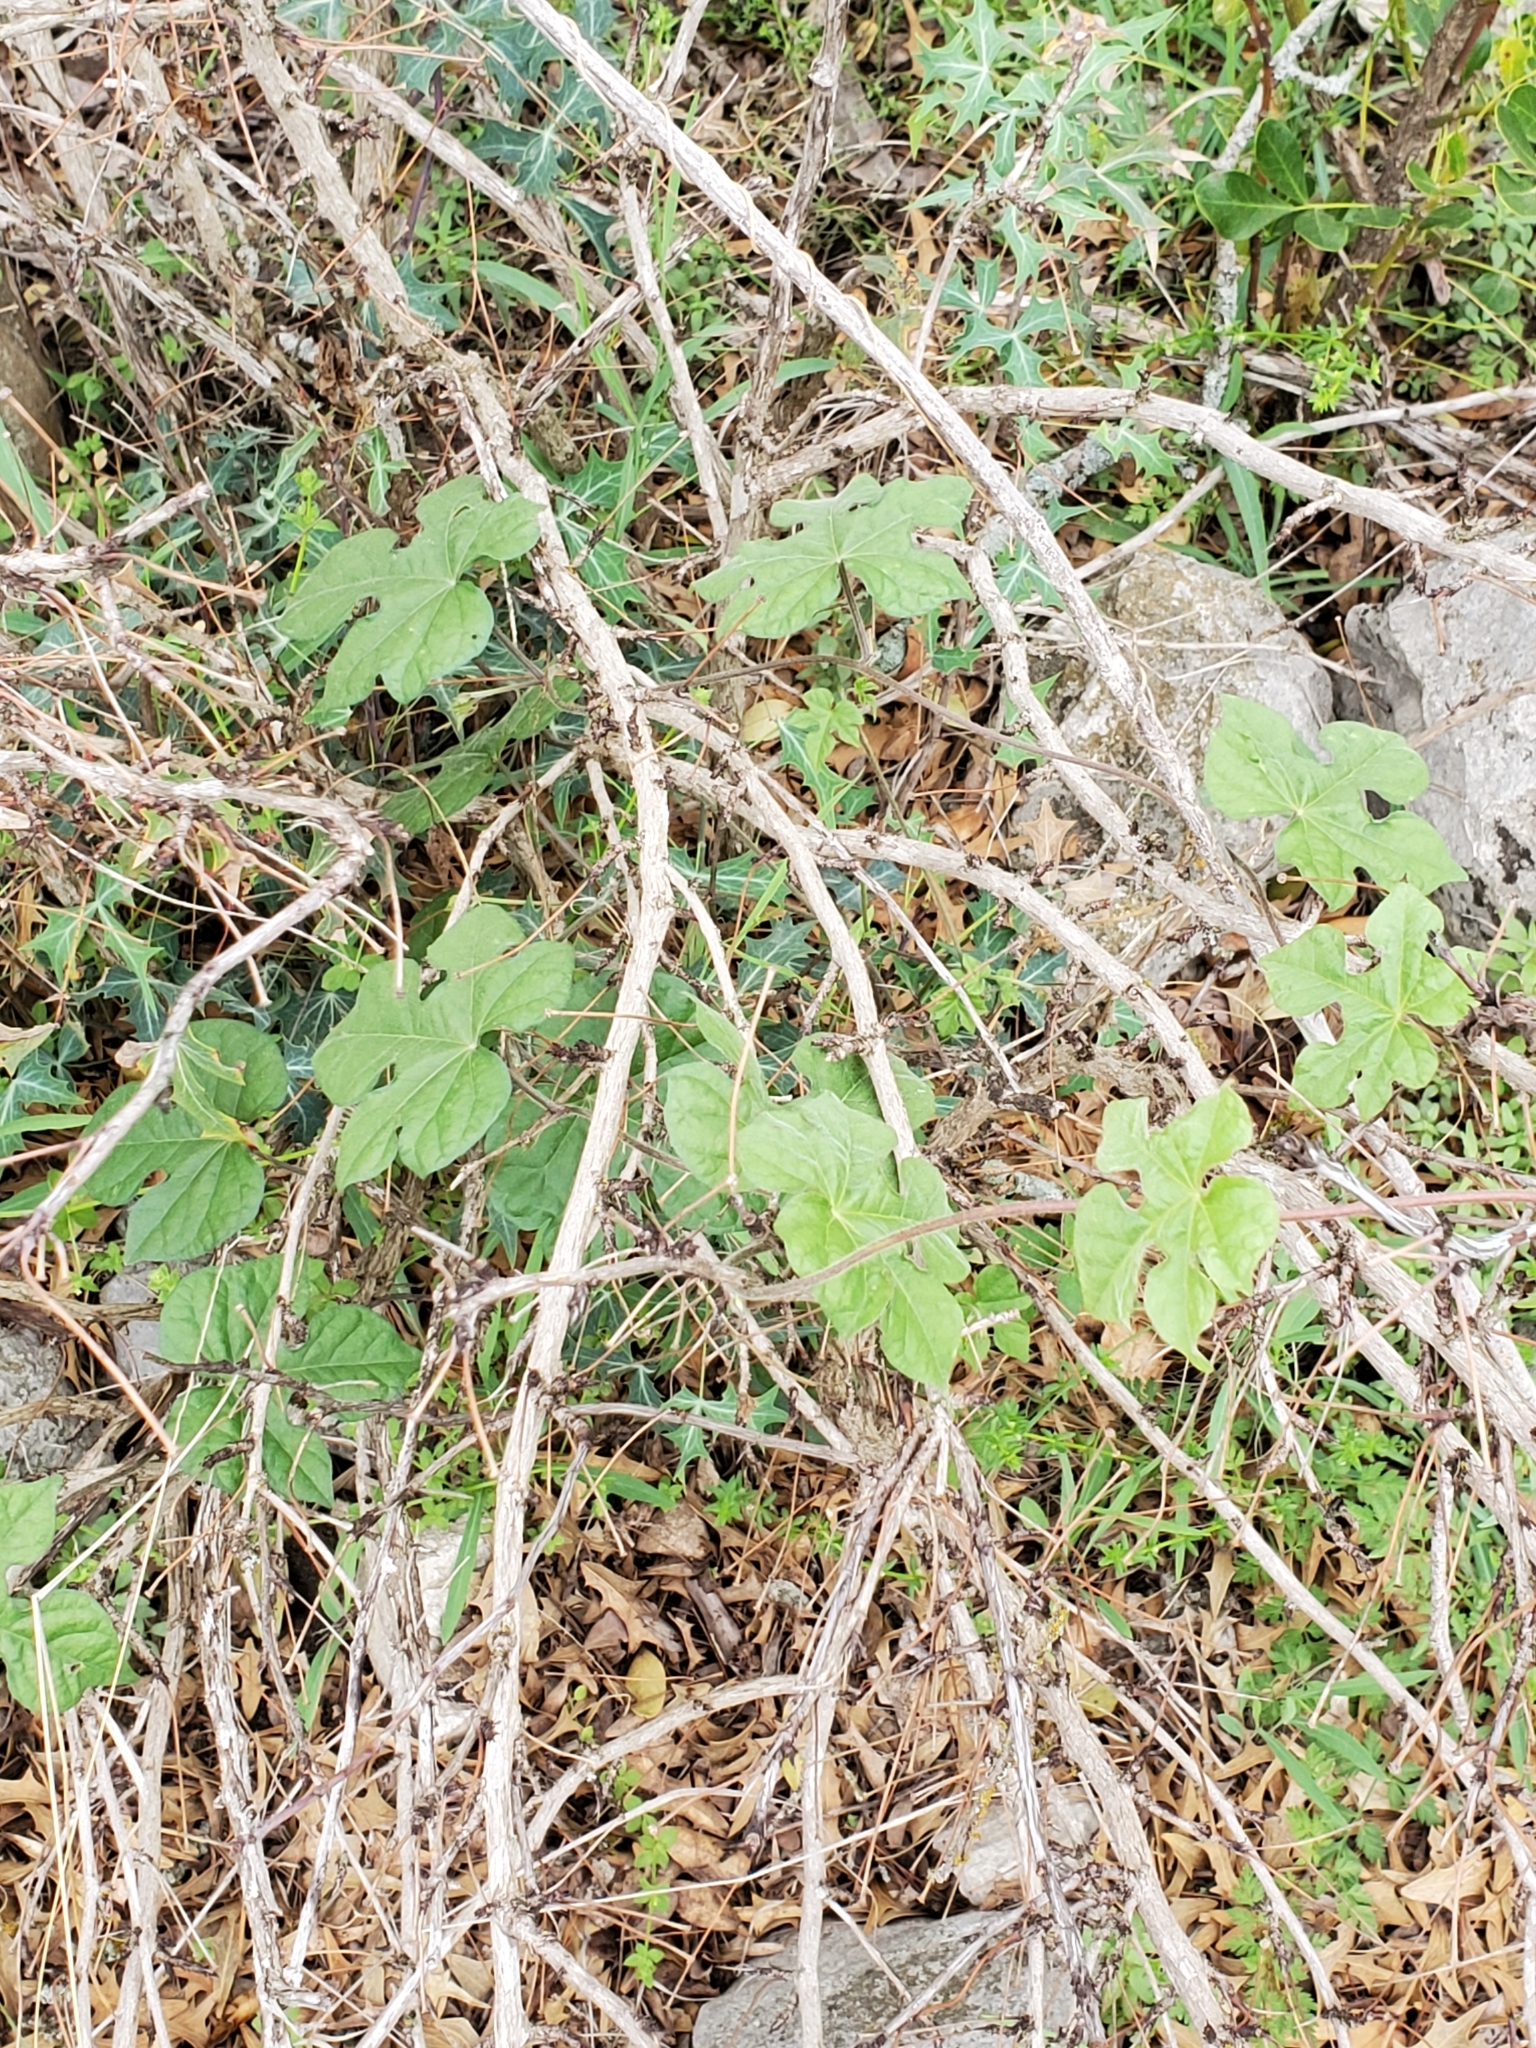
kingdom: Plantae
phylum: Tracheophyta
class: Magnoliopsida
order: Solanales
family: Convolvulaceae
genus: Ipomoea
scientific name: Ipomoea lindheimeri
